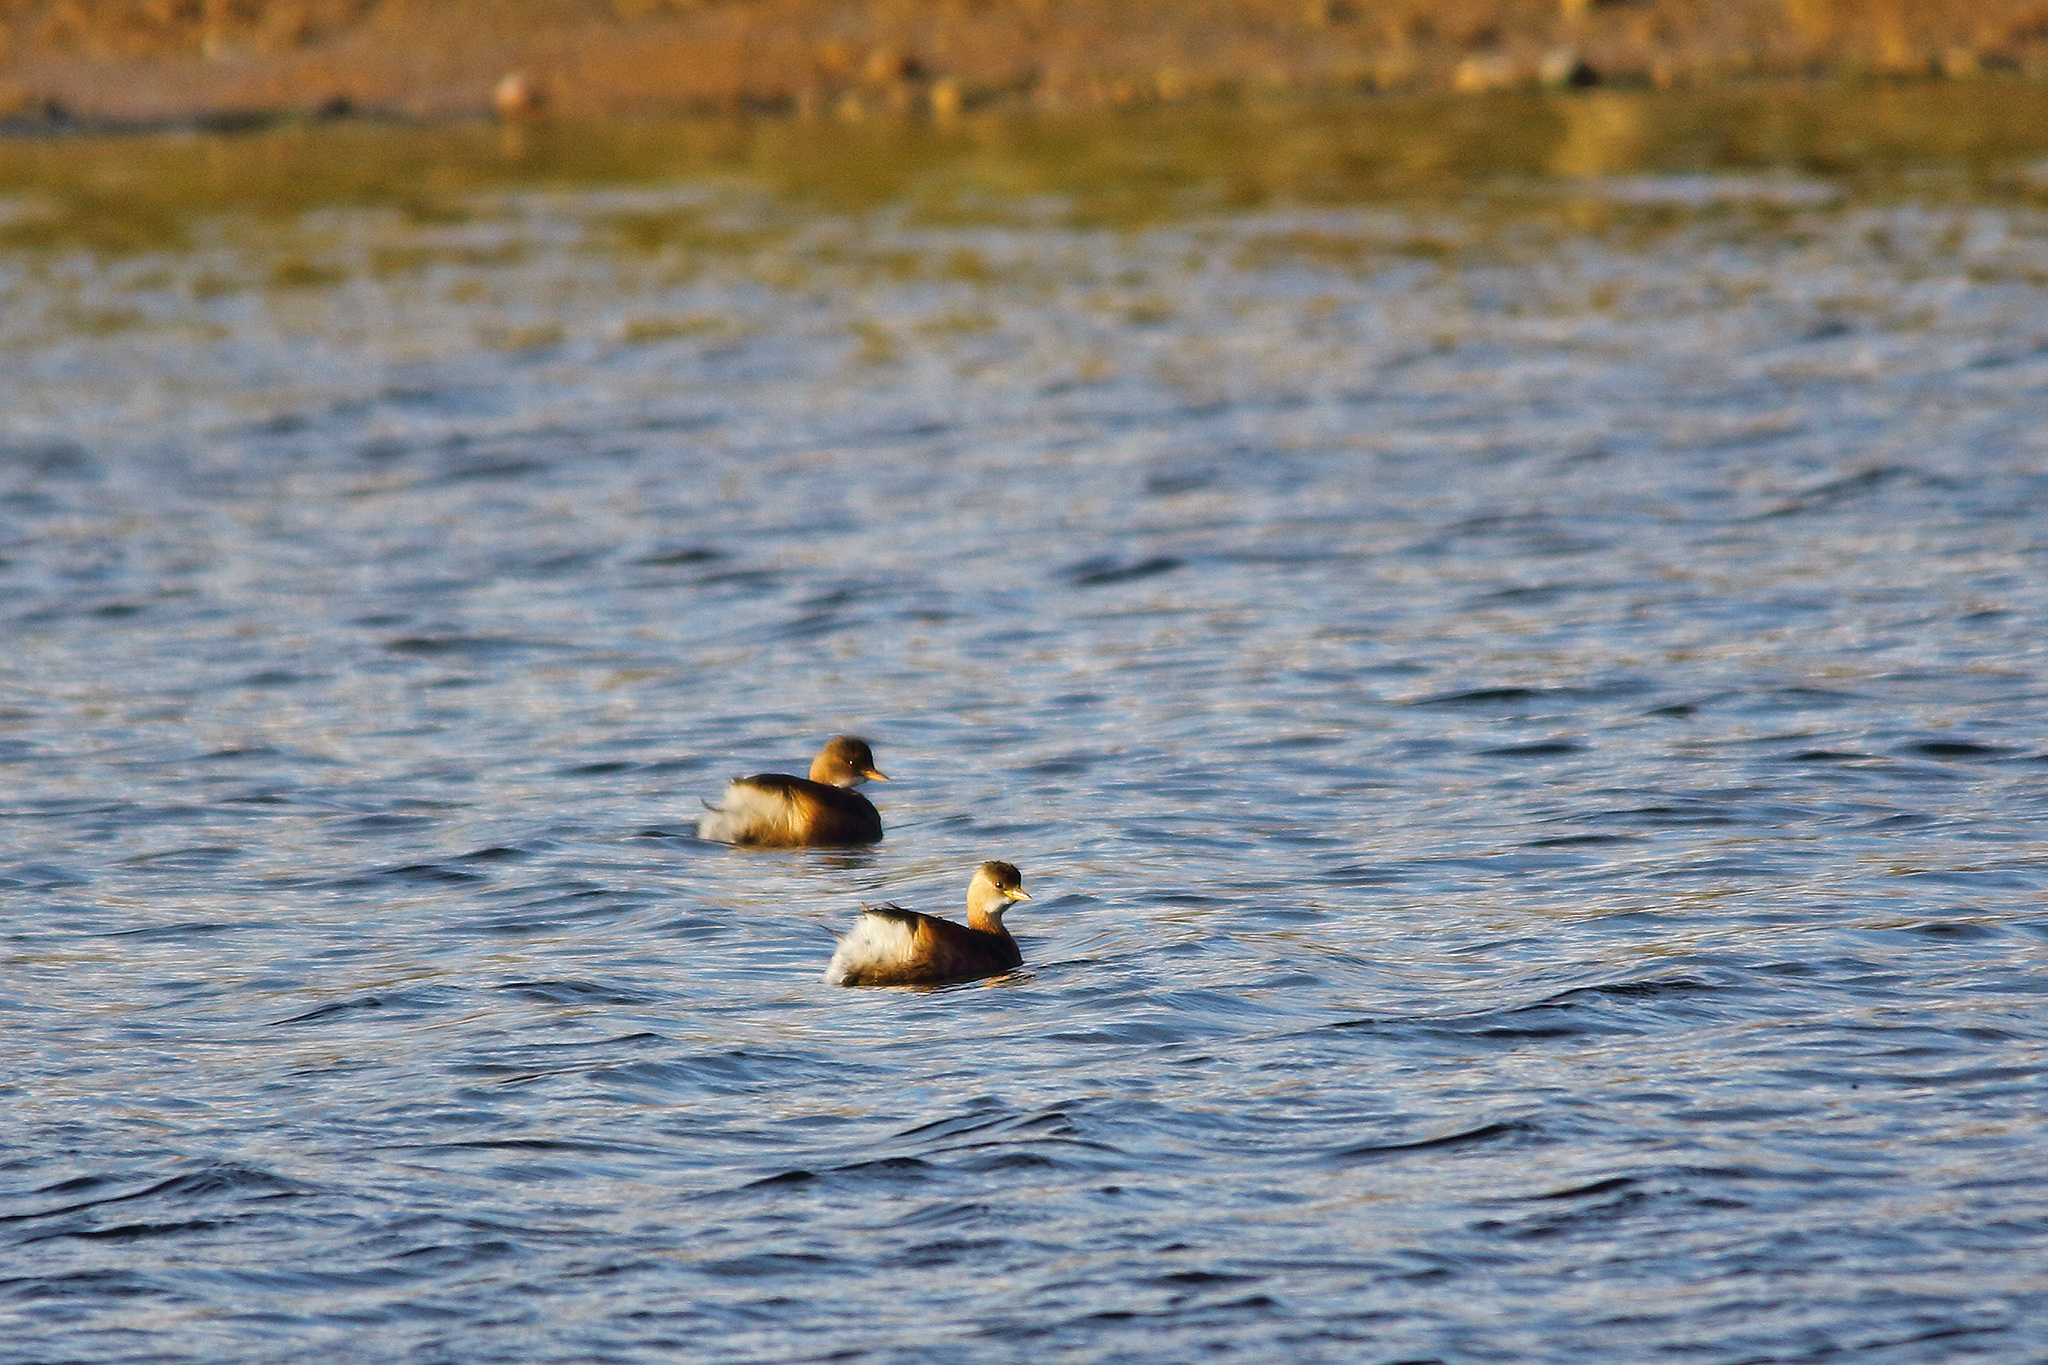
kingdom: Animalia
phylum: Chordata
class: Aves
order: Podicipediformes
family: Podicipedidae
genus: Tachybaptus
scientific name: Tachybaptus ruficollis
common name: Little grebe
